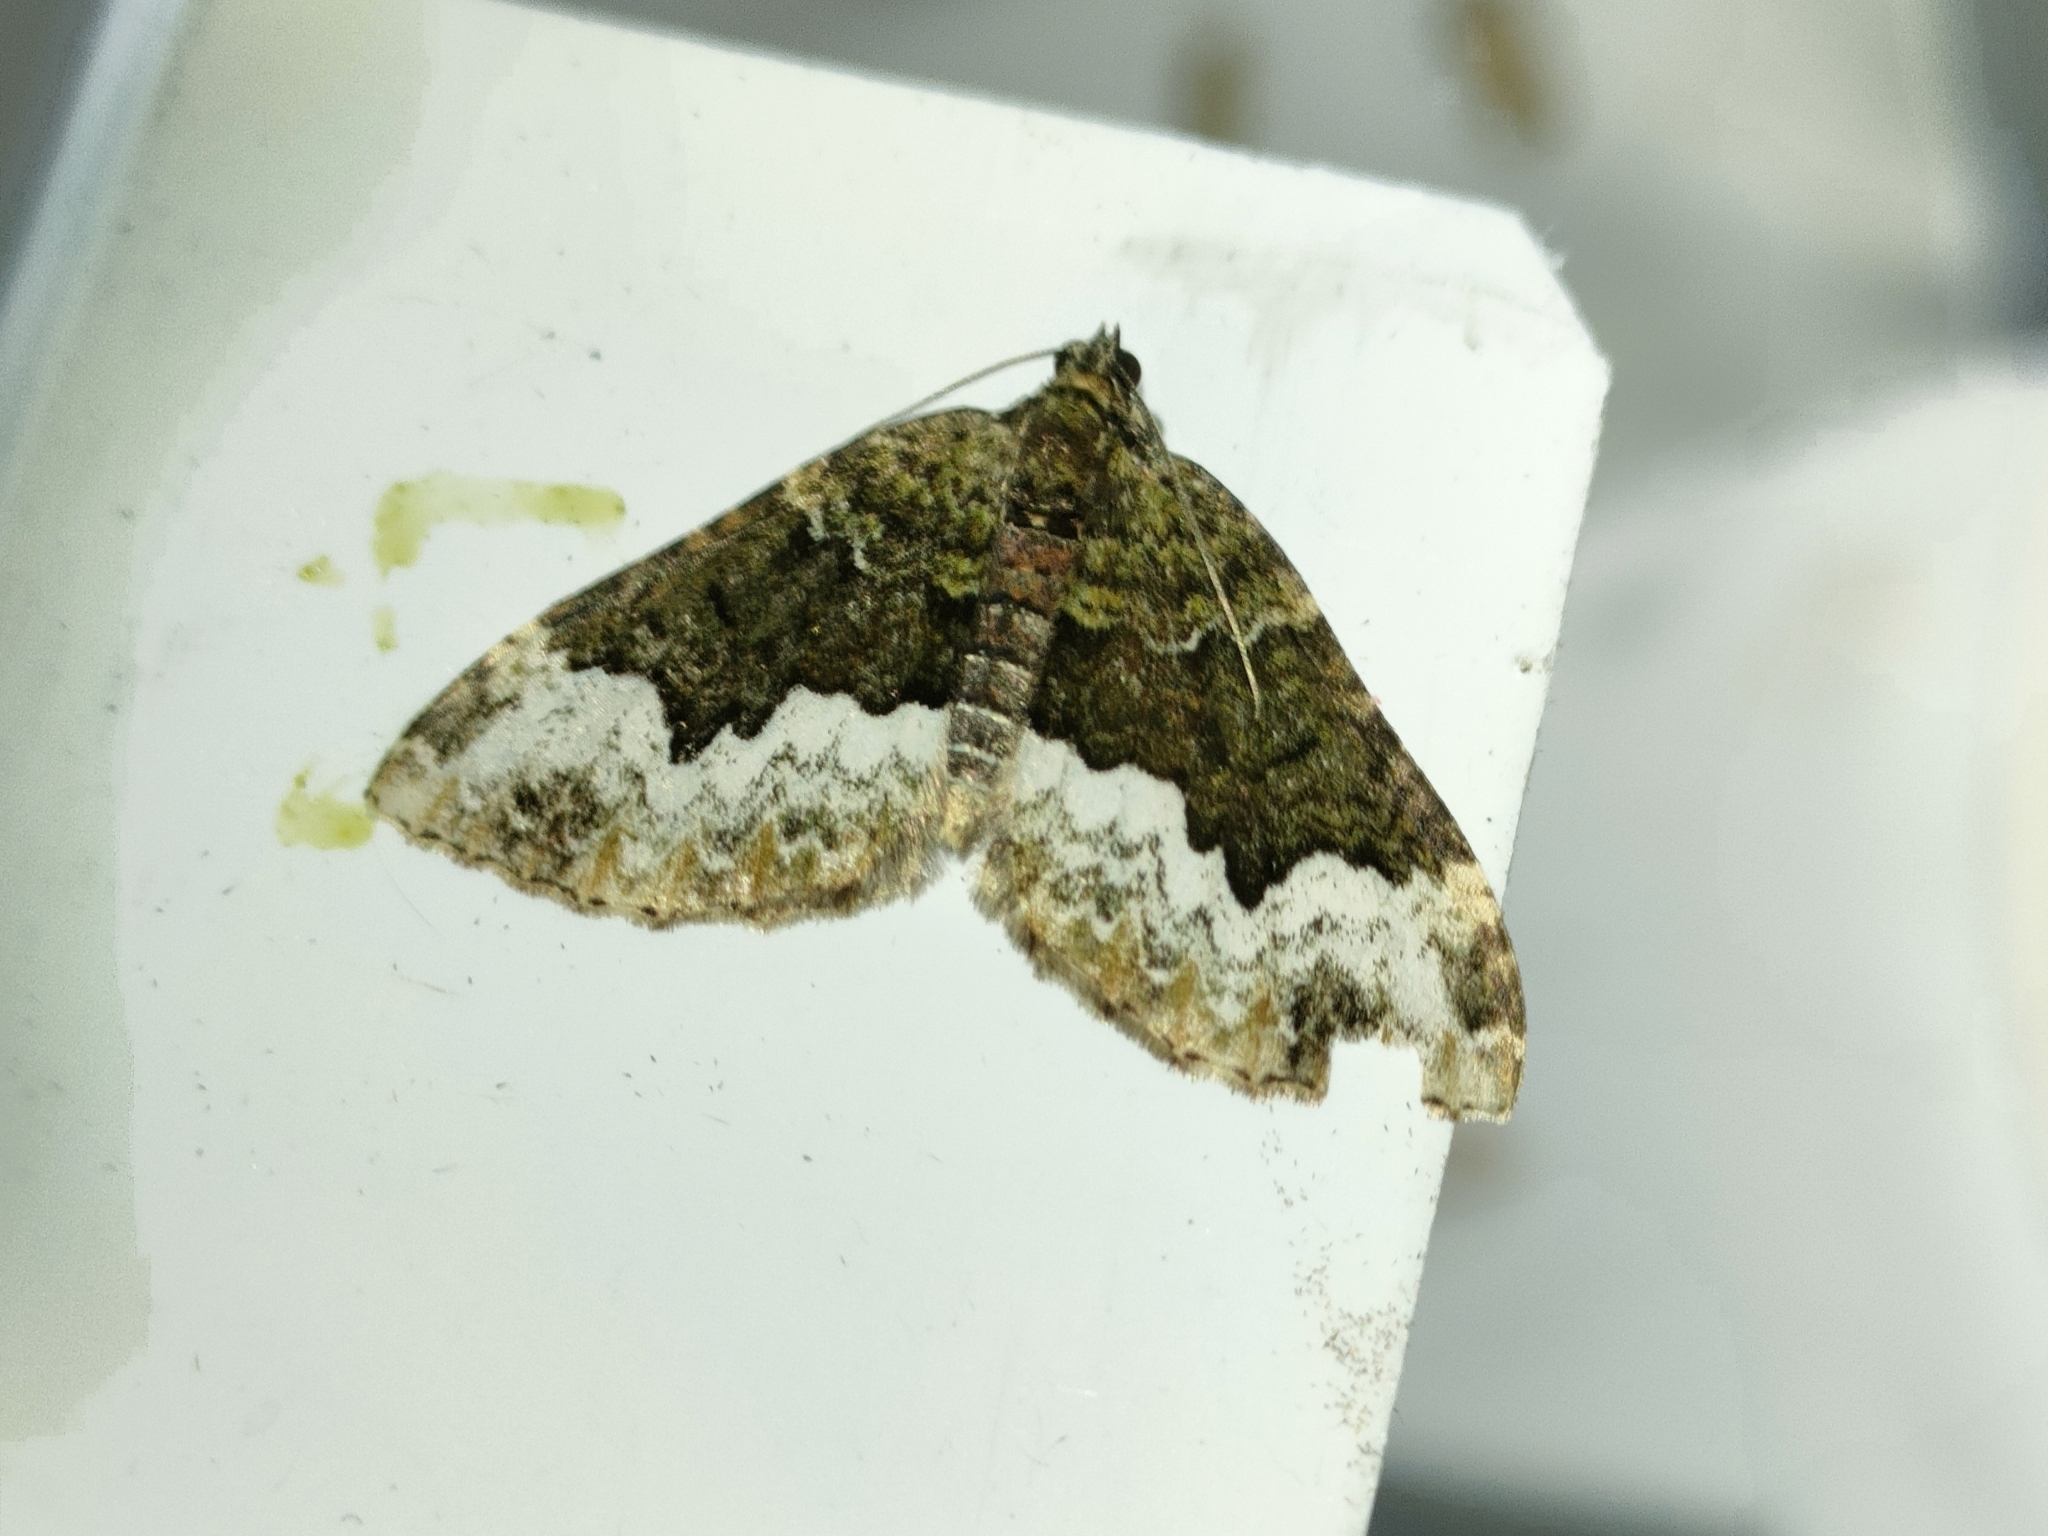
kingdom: Animalia
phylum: Arthropoda
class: Insecta
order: Lepidoptera
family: Geometridae
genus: Euphyia
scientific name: Euphyia biangulata
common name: Cloaked carpet
